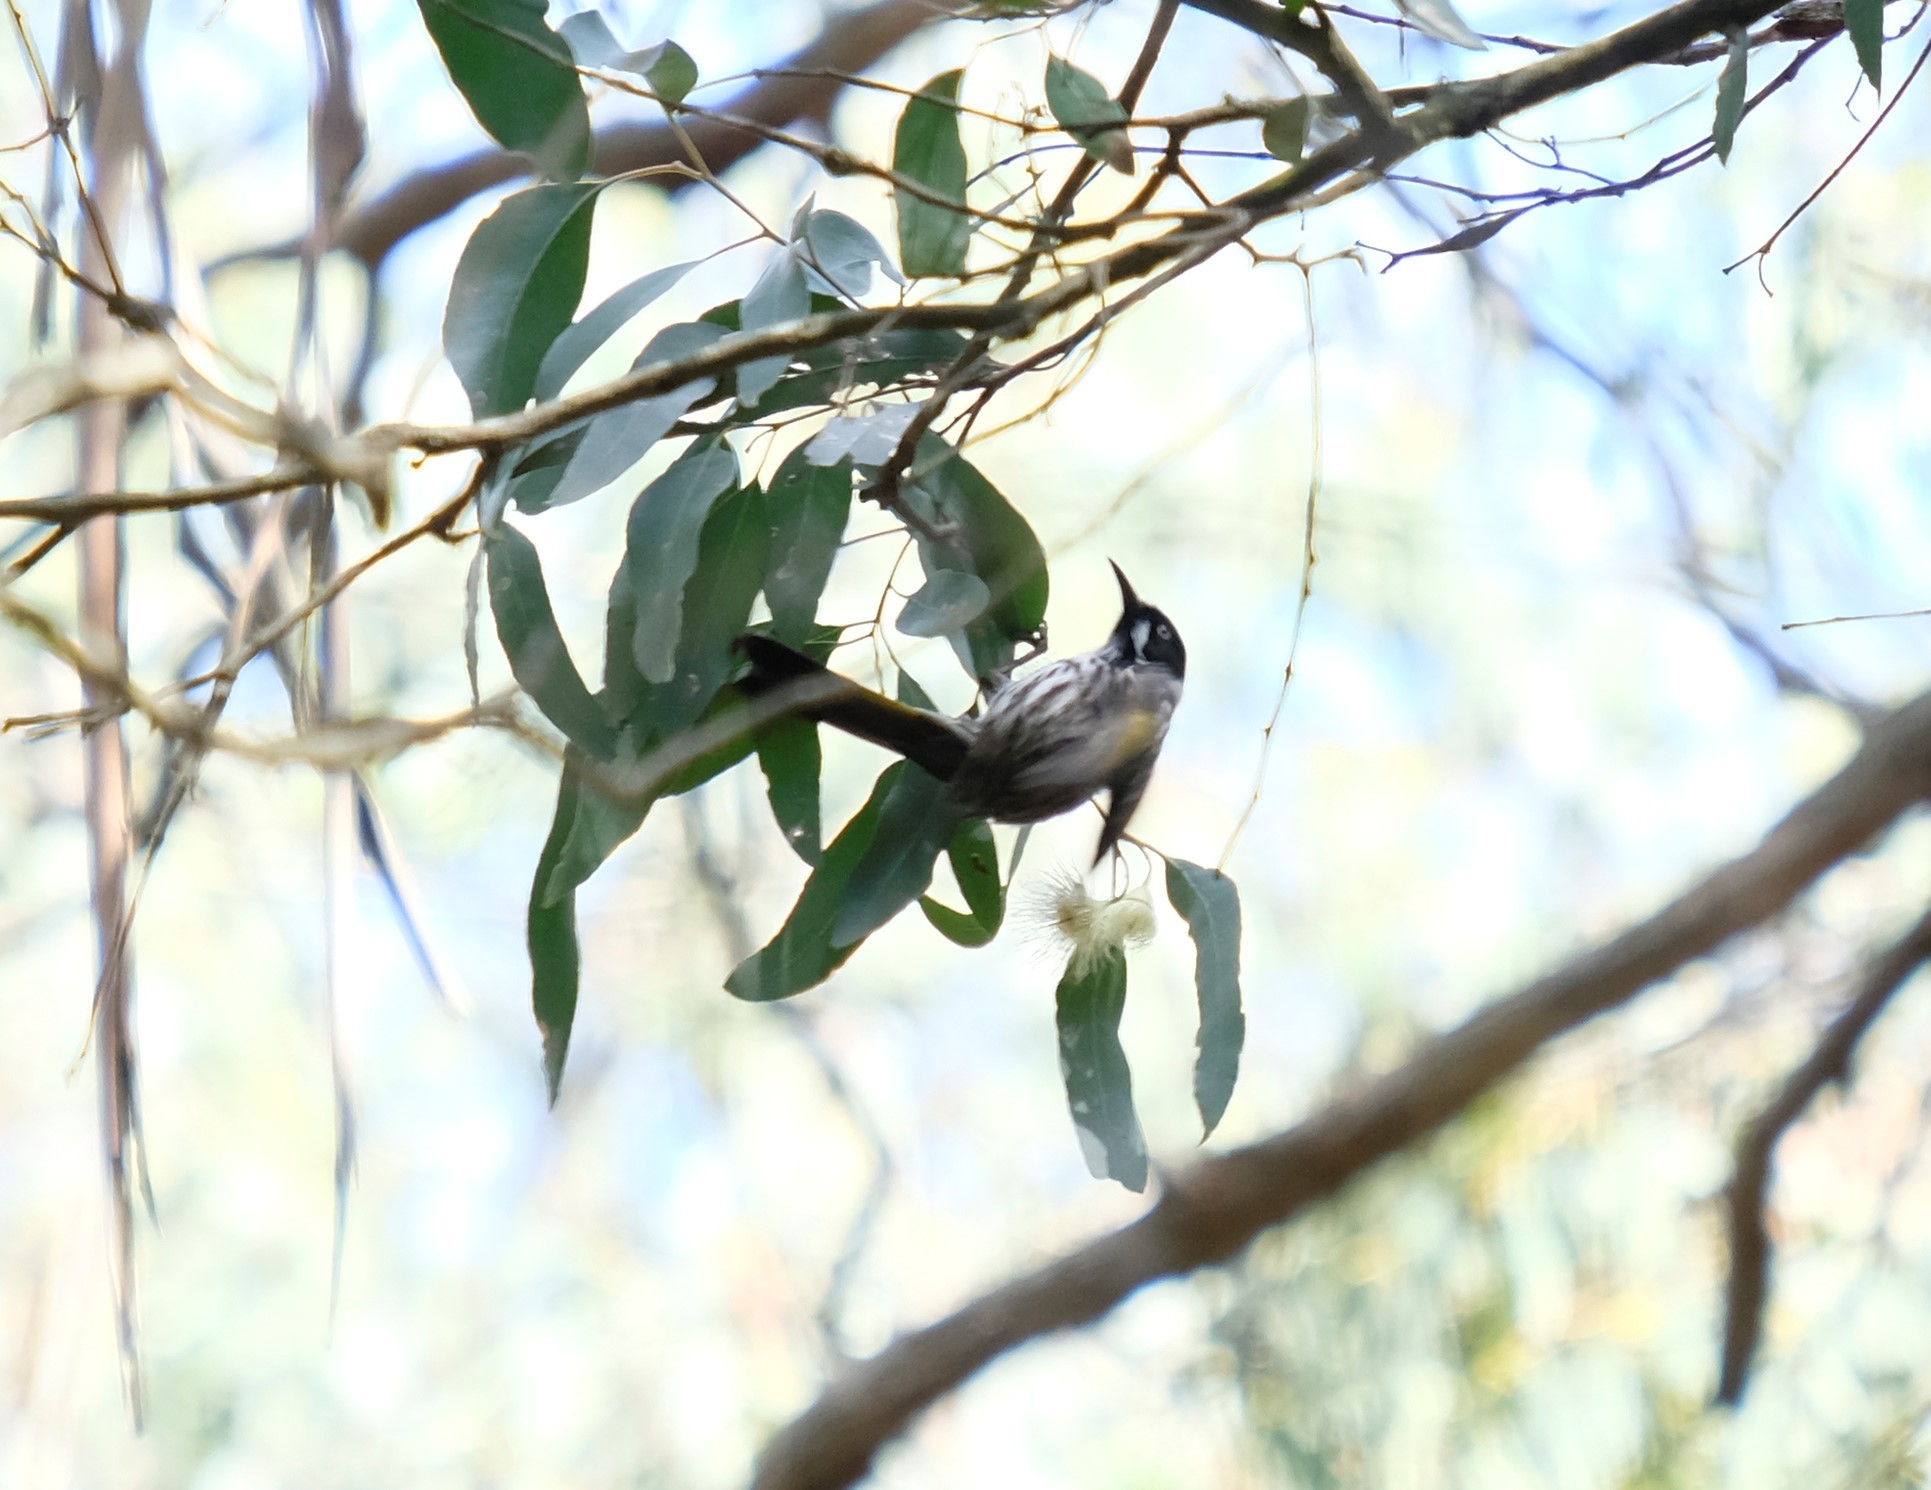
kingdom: Animalia
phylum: Chordata
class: Aves
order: Passeriformes
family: Meliphagidae
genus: Phylidonyris
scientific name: Phylidonyris novaehollandiae
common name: New holland honeyeater
